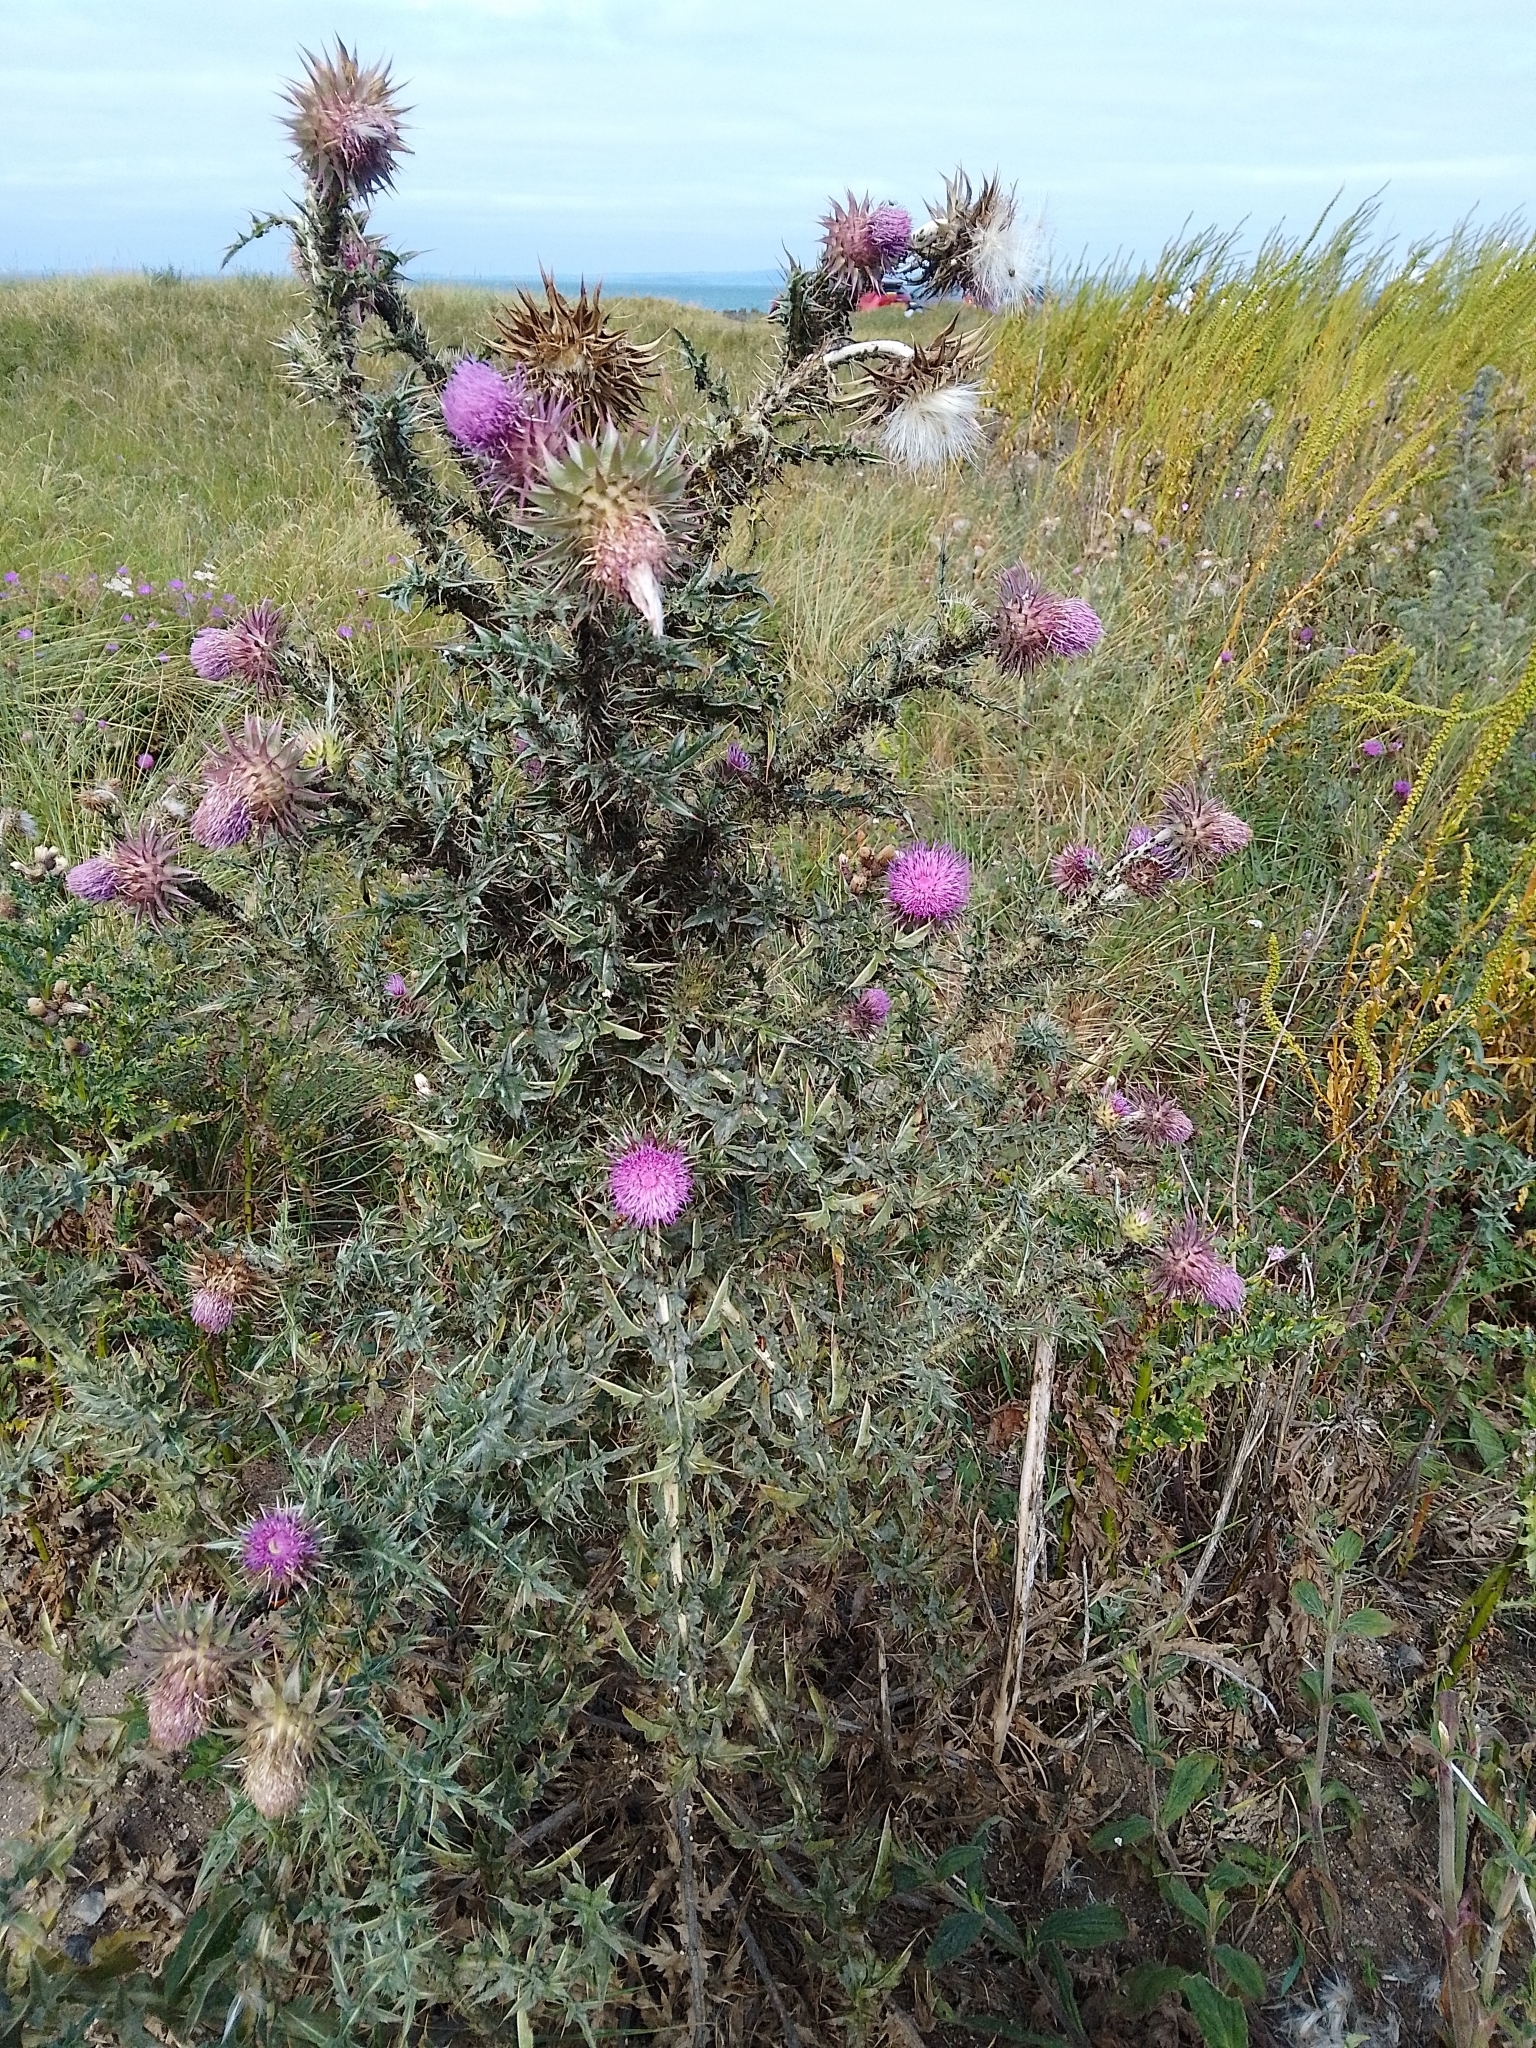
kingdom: Plantae
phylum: Tracheophyta
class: Magnoliopsida
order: Asterales
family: Asteraceae
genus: Carduus
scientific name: Carduus nutans
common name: Musk thistle
